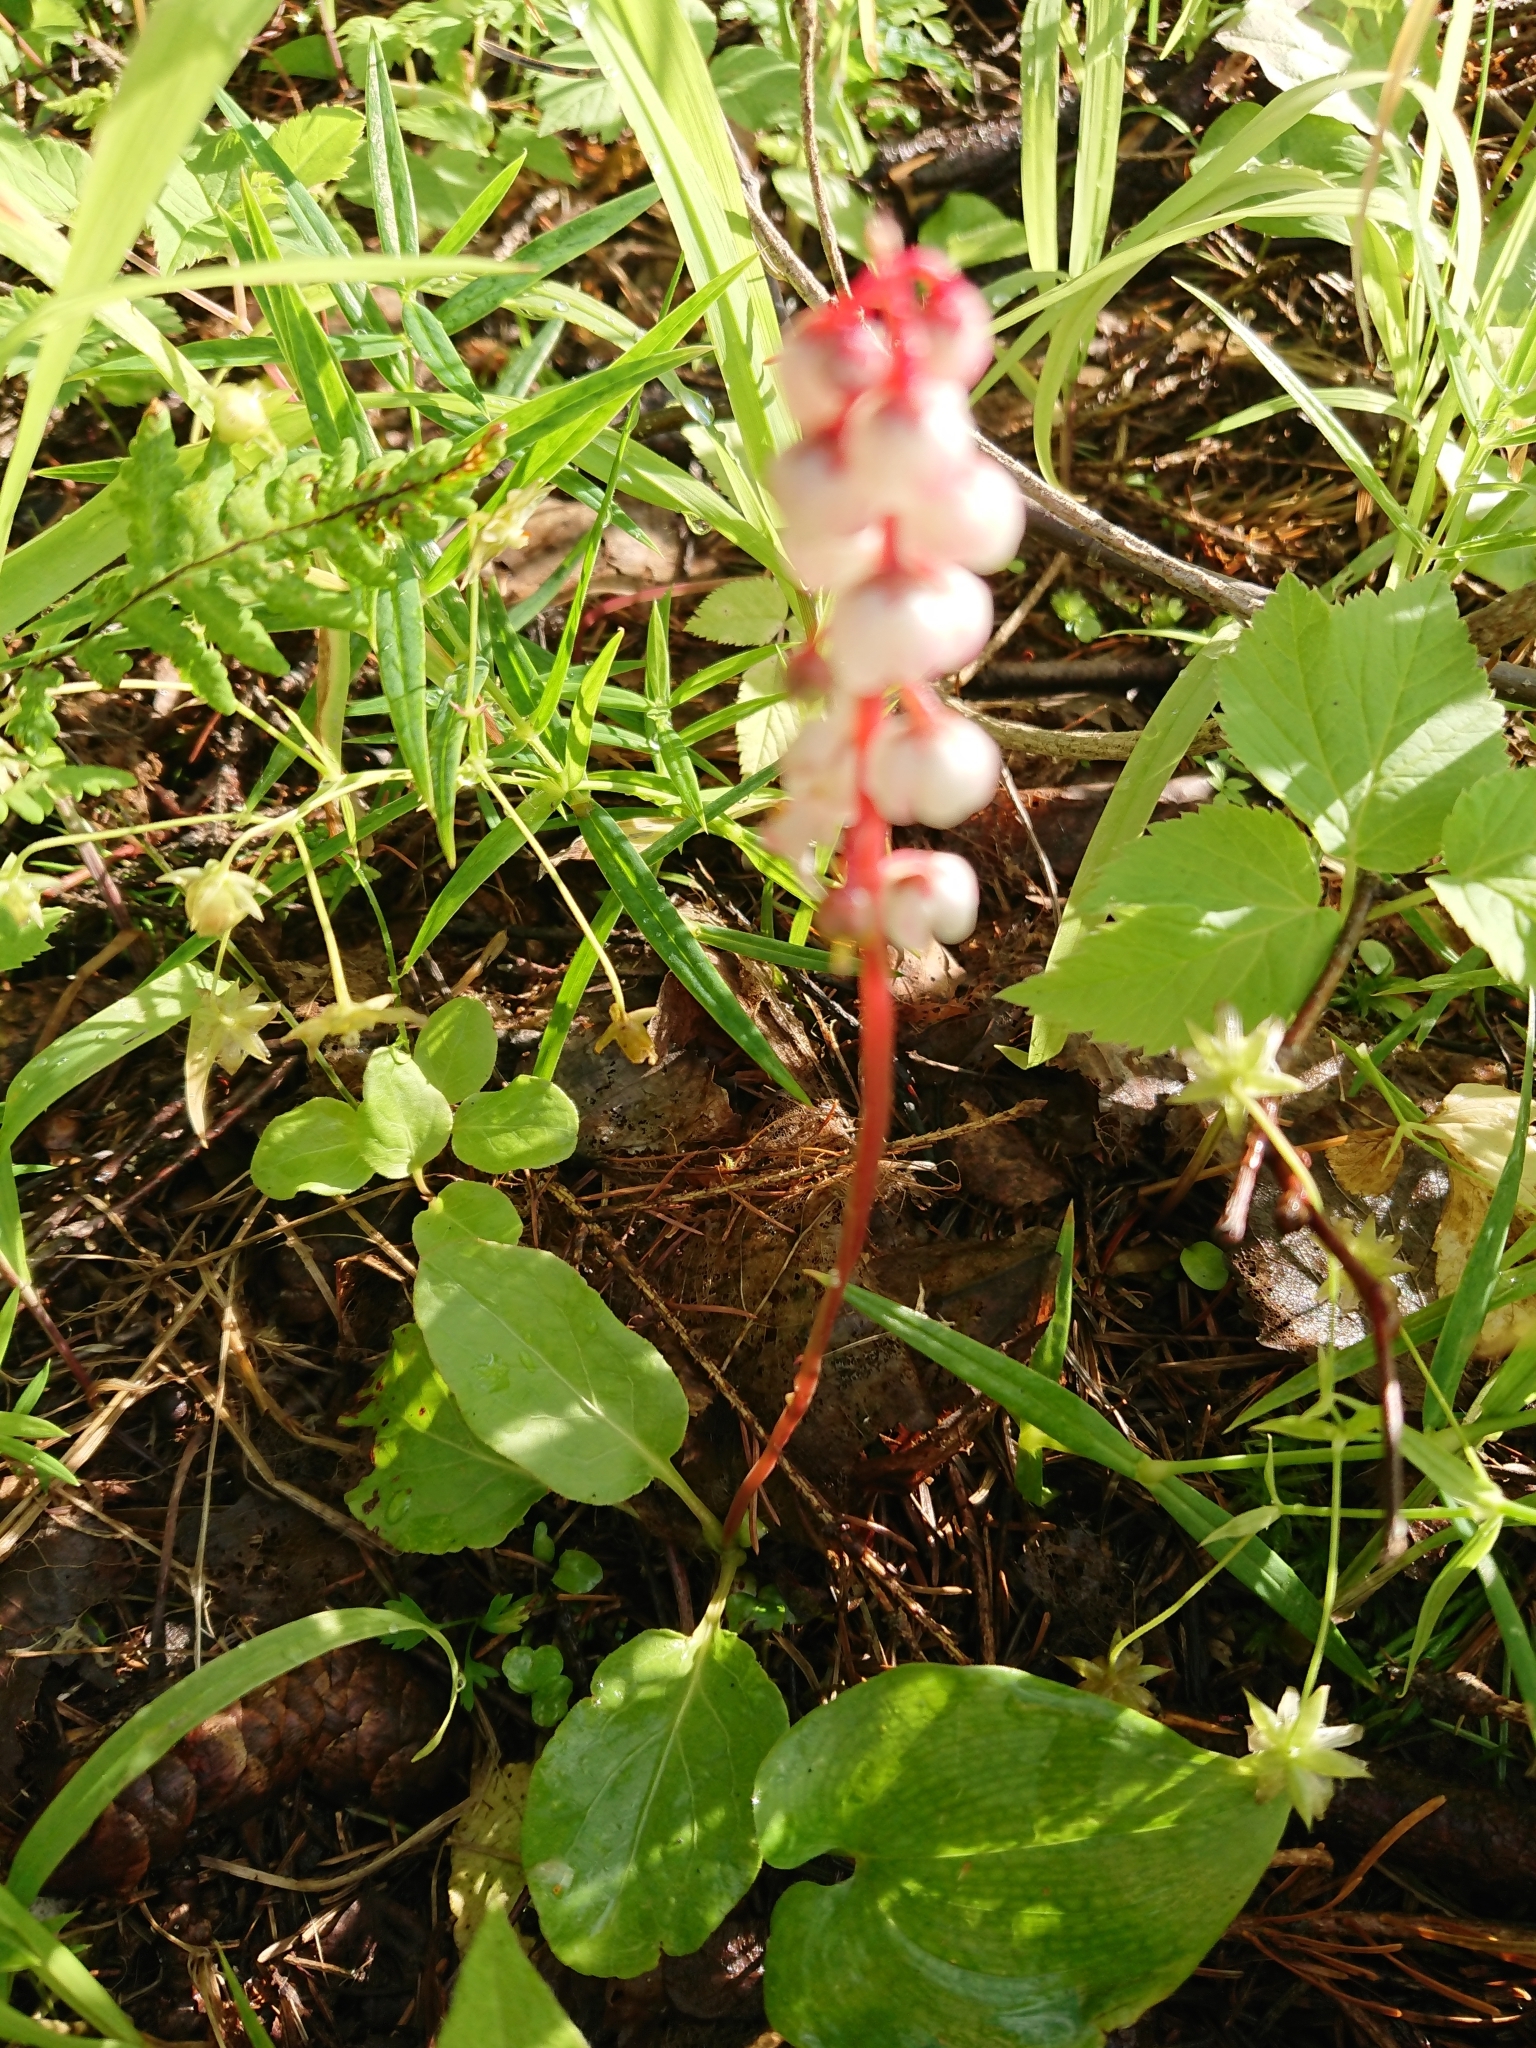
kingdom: Plantae
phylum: Tracheophyta
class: Magnoliopsida
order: Ericales
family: Ericaceae
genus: Pyrola
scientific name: Pyrola minor
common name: Common wintergreen
